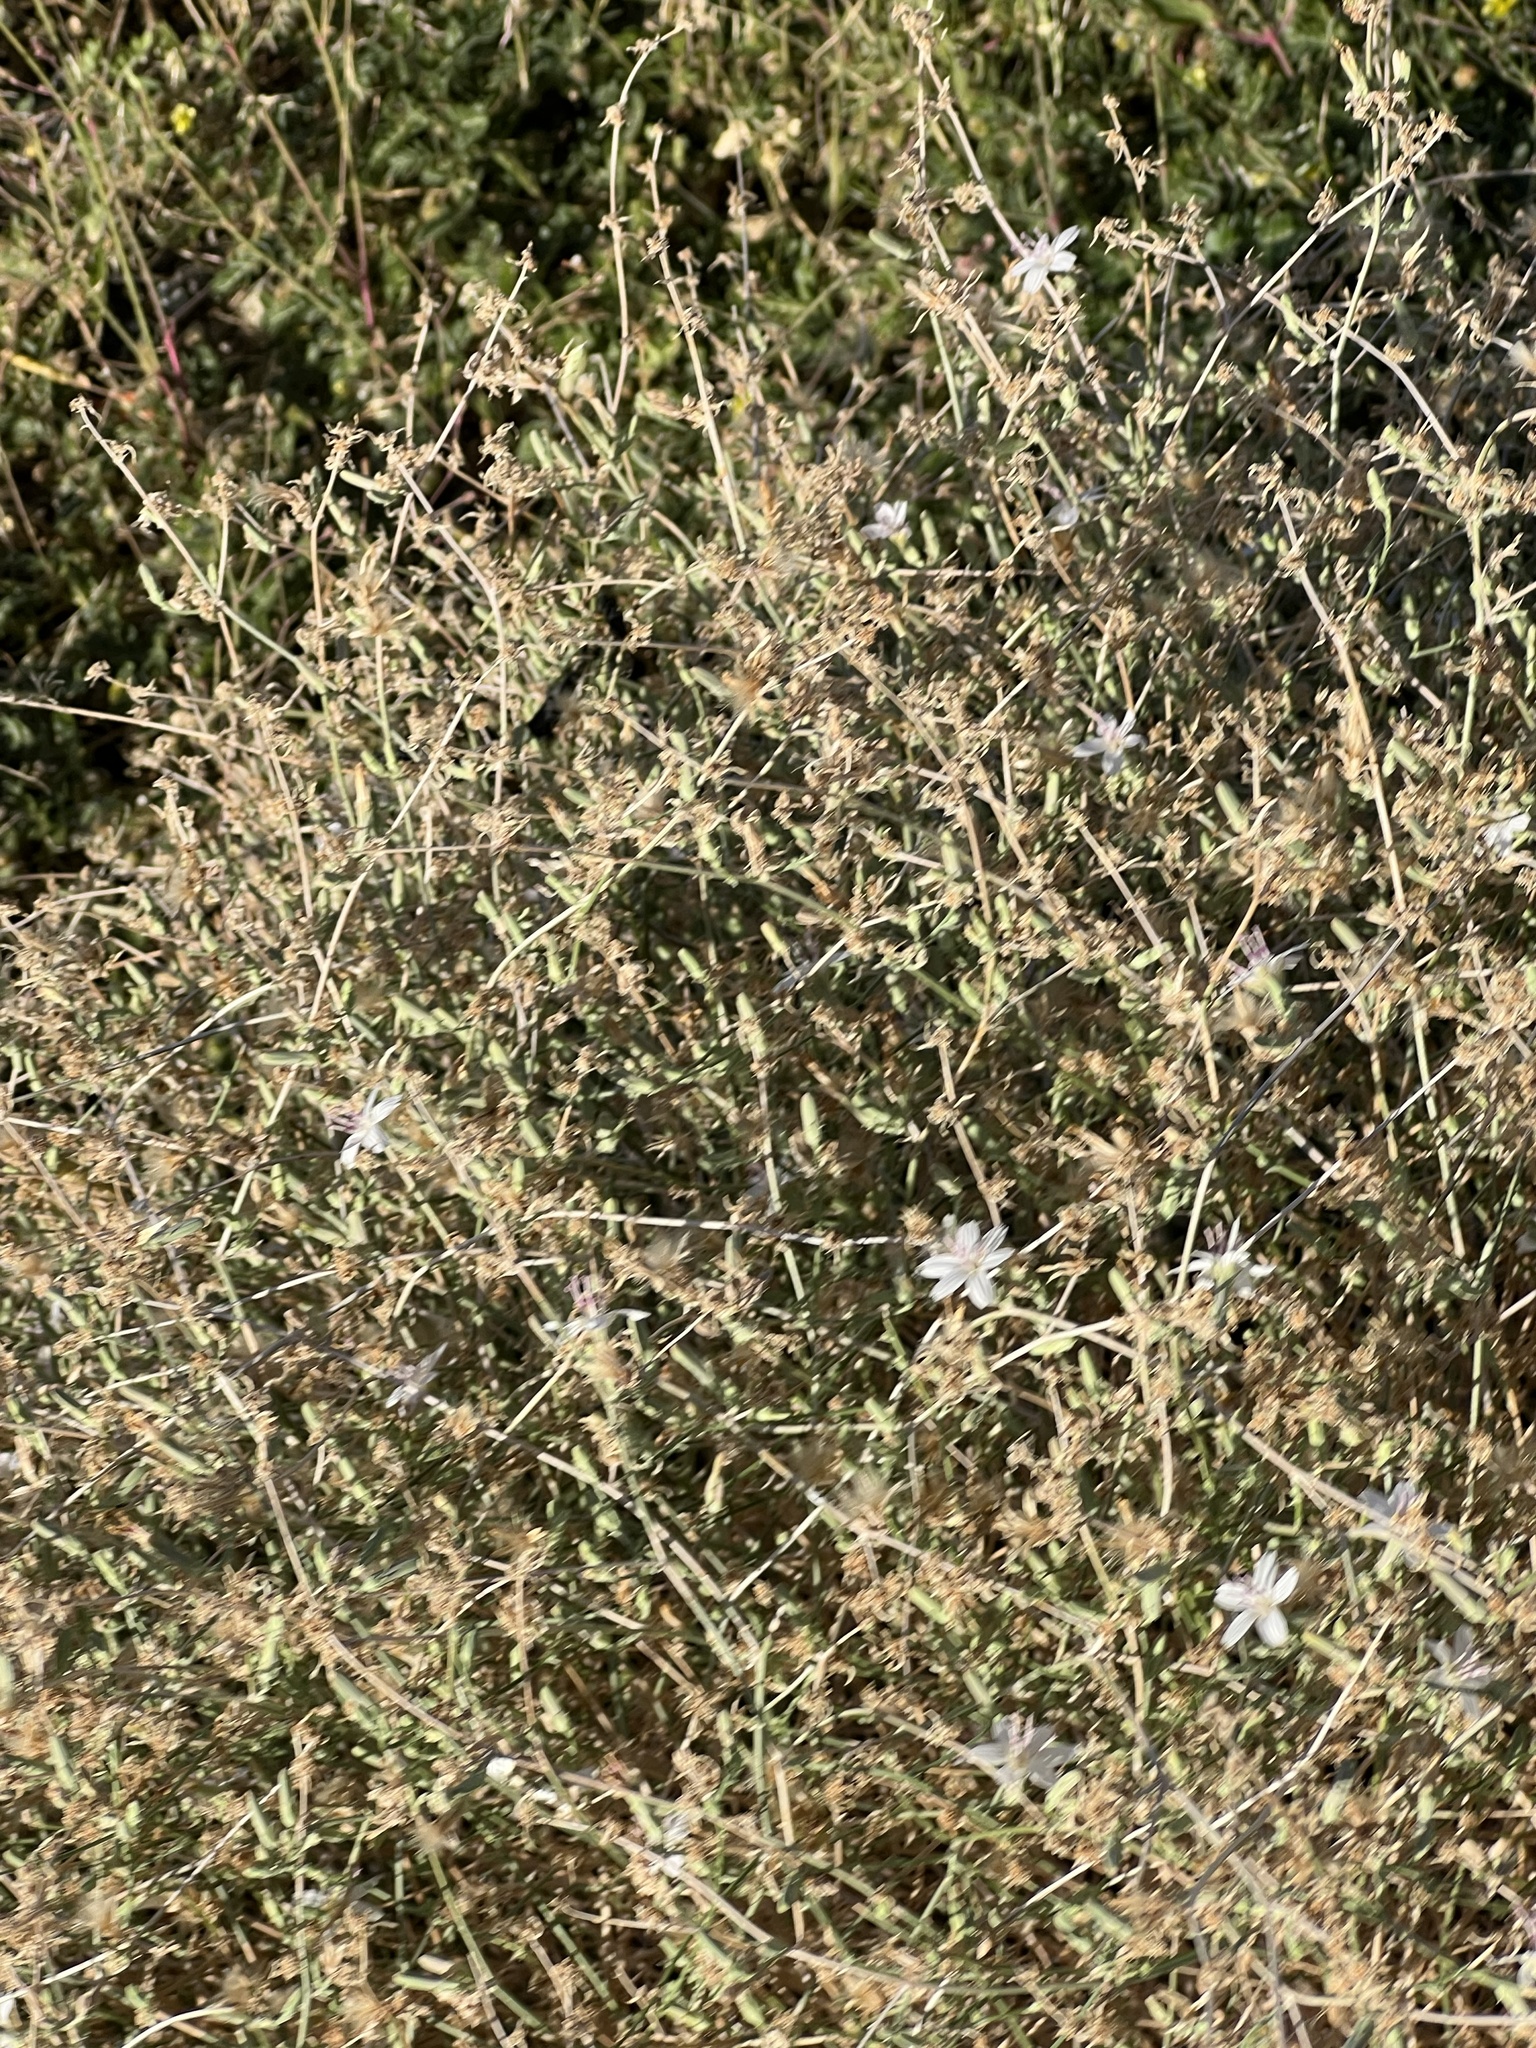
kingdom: Plantae
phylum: Tracheophyta
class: Magnoliopsida
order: Asterales
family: Asteraceae
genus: Stephanomeria
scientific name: Stephanomeria pauciflora
